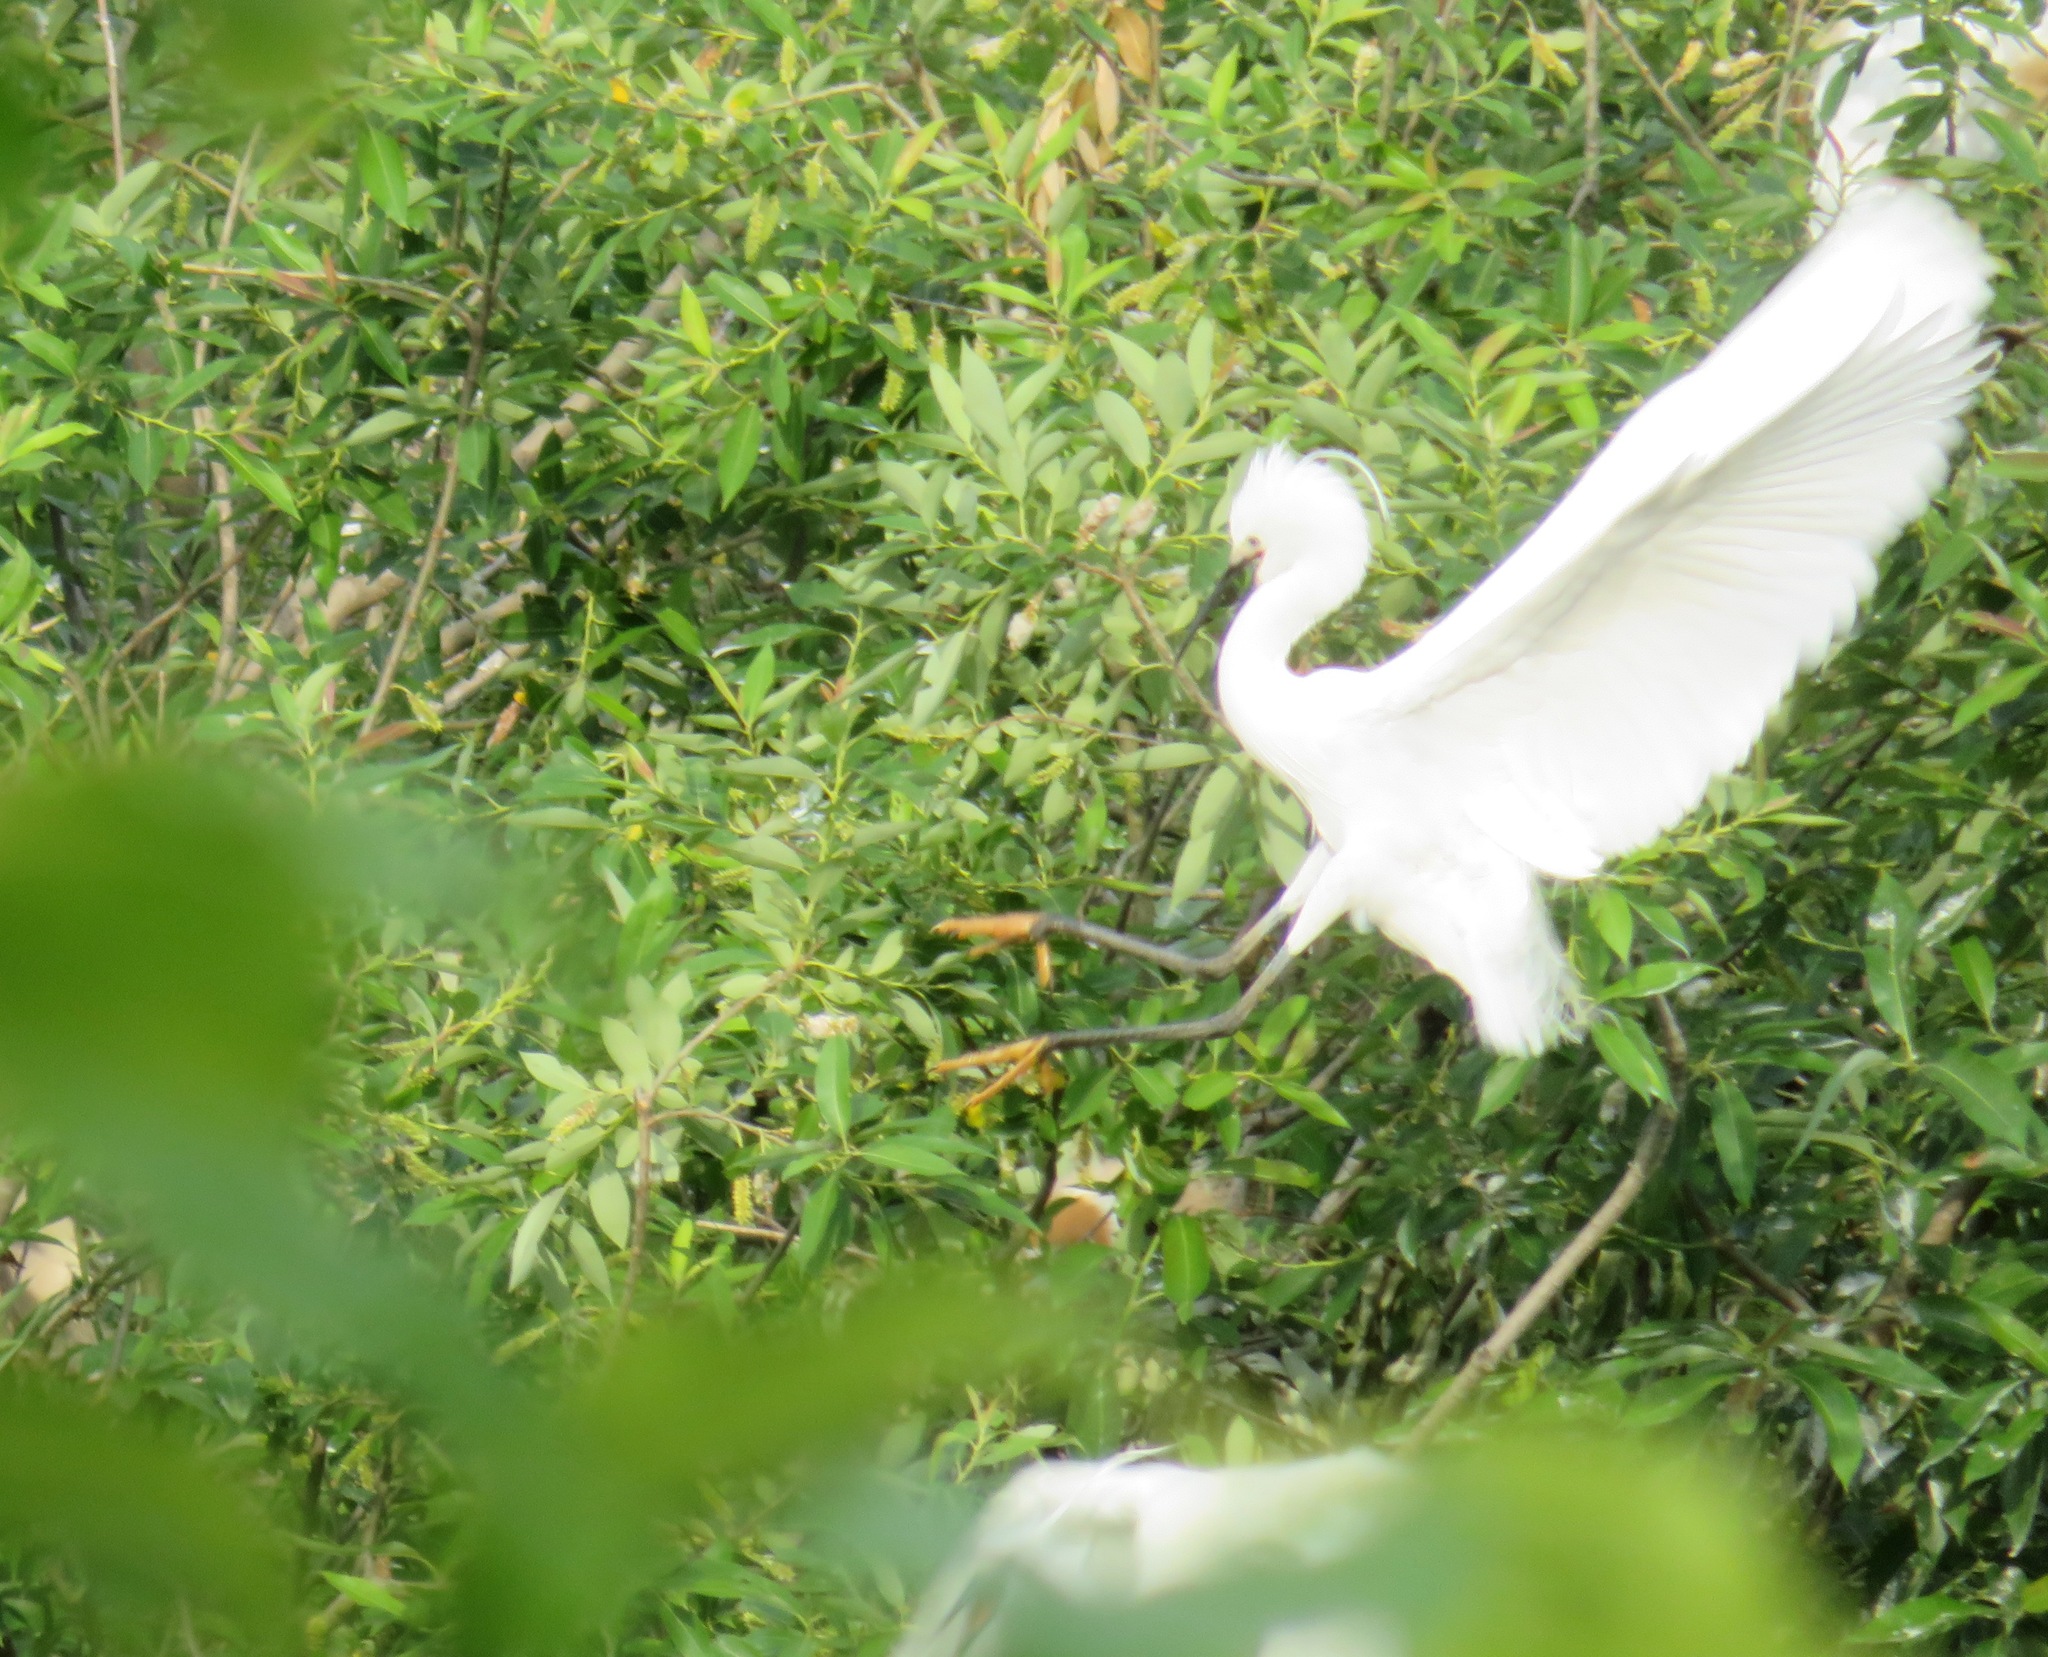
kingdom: Animalia
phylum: Chordata
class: Aves
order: Pelecaniformes
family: Ardeidae
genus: Egretta
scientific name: Egretta garzetta
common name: Little egret
